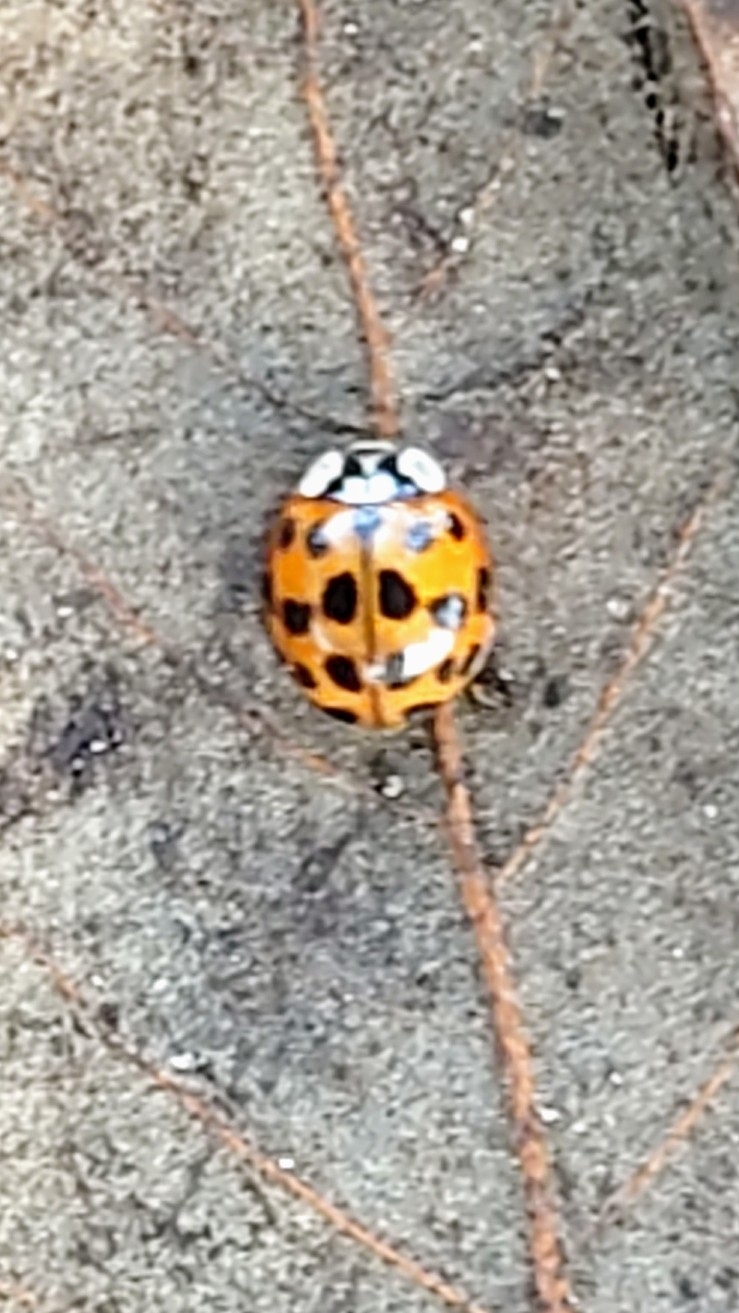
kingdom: Animalia
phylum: Arthropoda
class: Insecta
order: Coleoptera
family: Coccinellidae
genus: Harmonia
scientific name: Harmonia axyridis
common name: Harlequin ladybird
